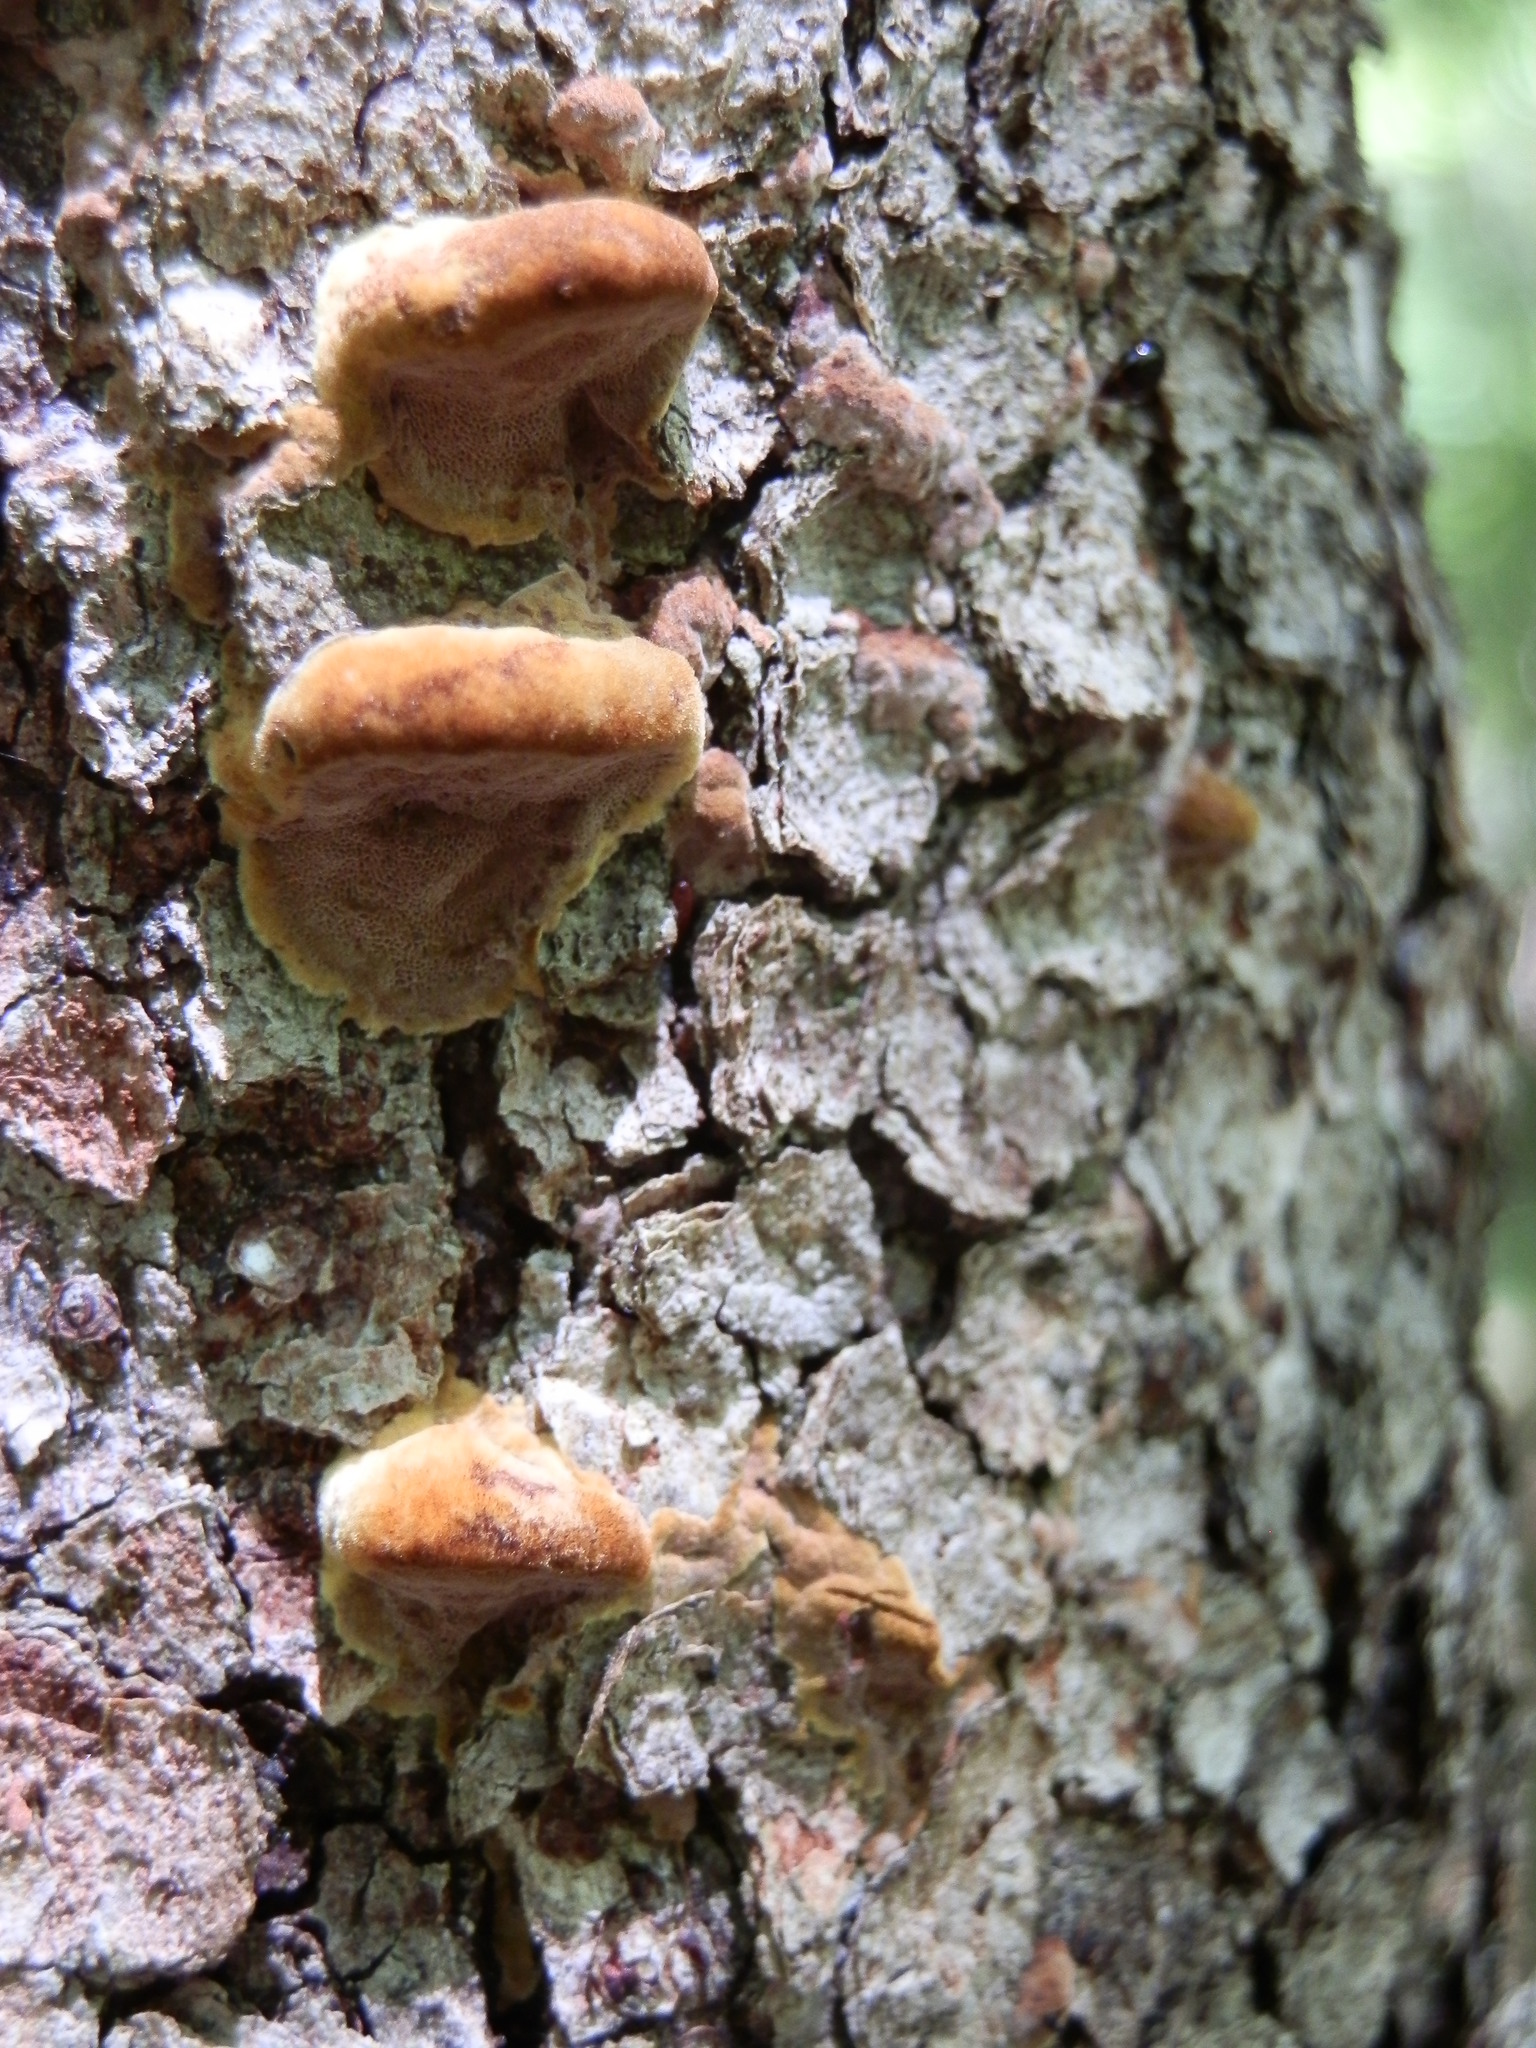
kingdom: Fungi
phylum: Basidiomycota
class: Agaricomycetes
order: Hymenochaetales
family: Hymenochaetaceae
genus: Phellinus
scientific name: Phellinus gilvus
